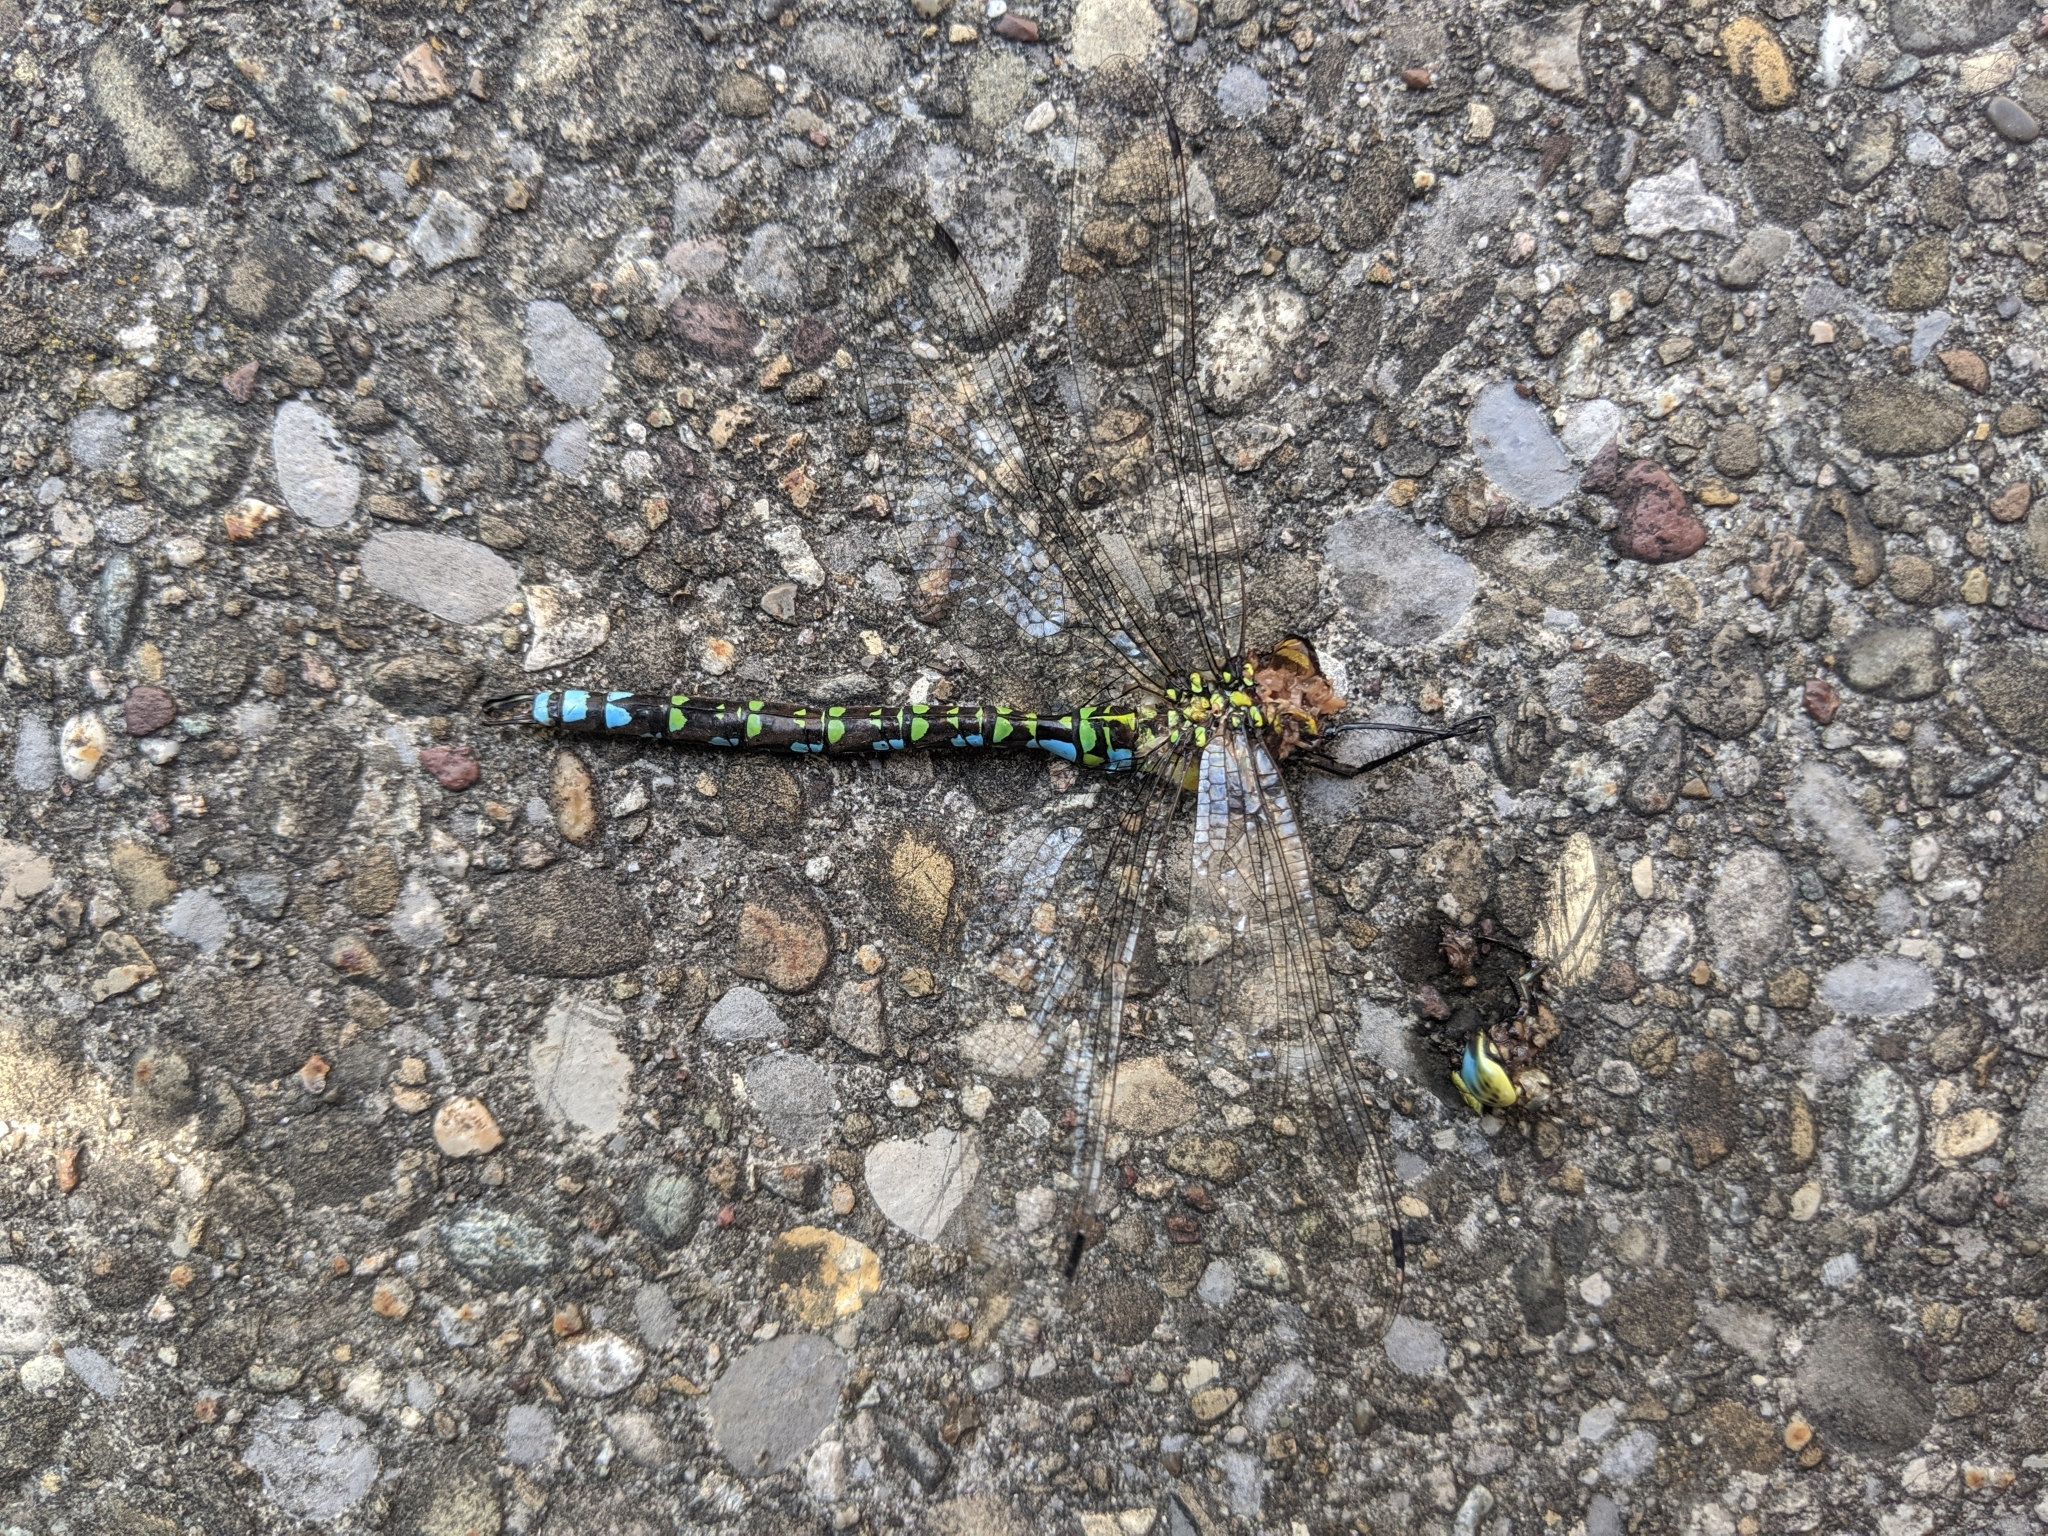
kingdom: Animalia
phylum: Arthropoda
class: Insecta
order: Odonata
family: Aeshnidae
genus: Aeshna
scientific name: Aeshna cyanea
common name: Southern hawker
